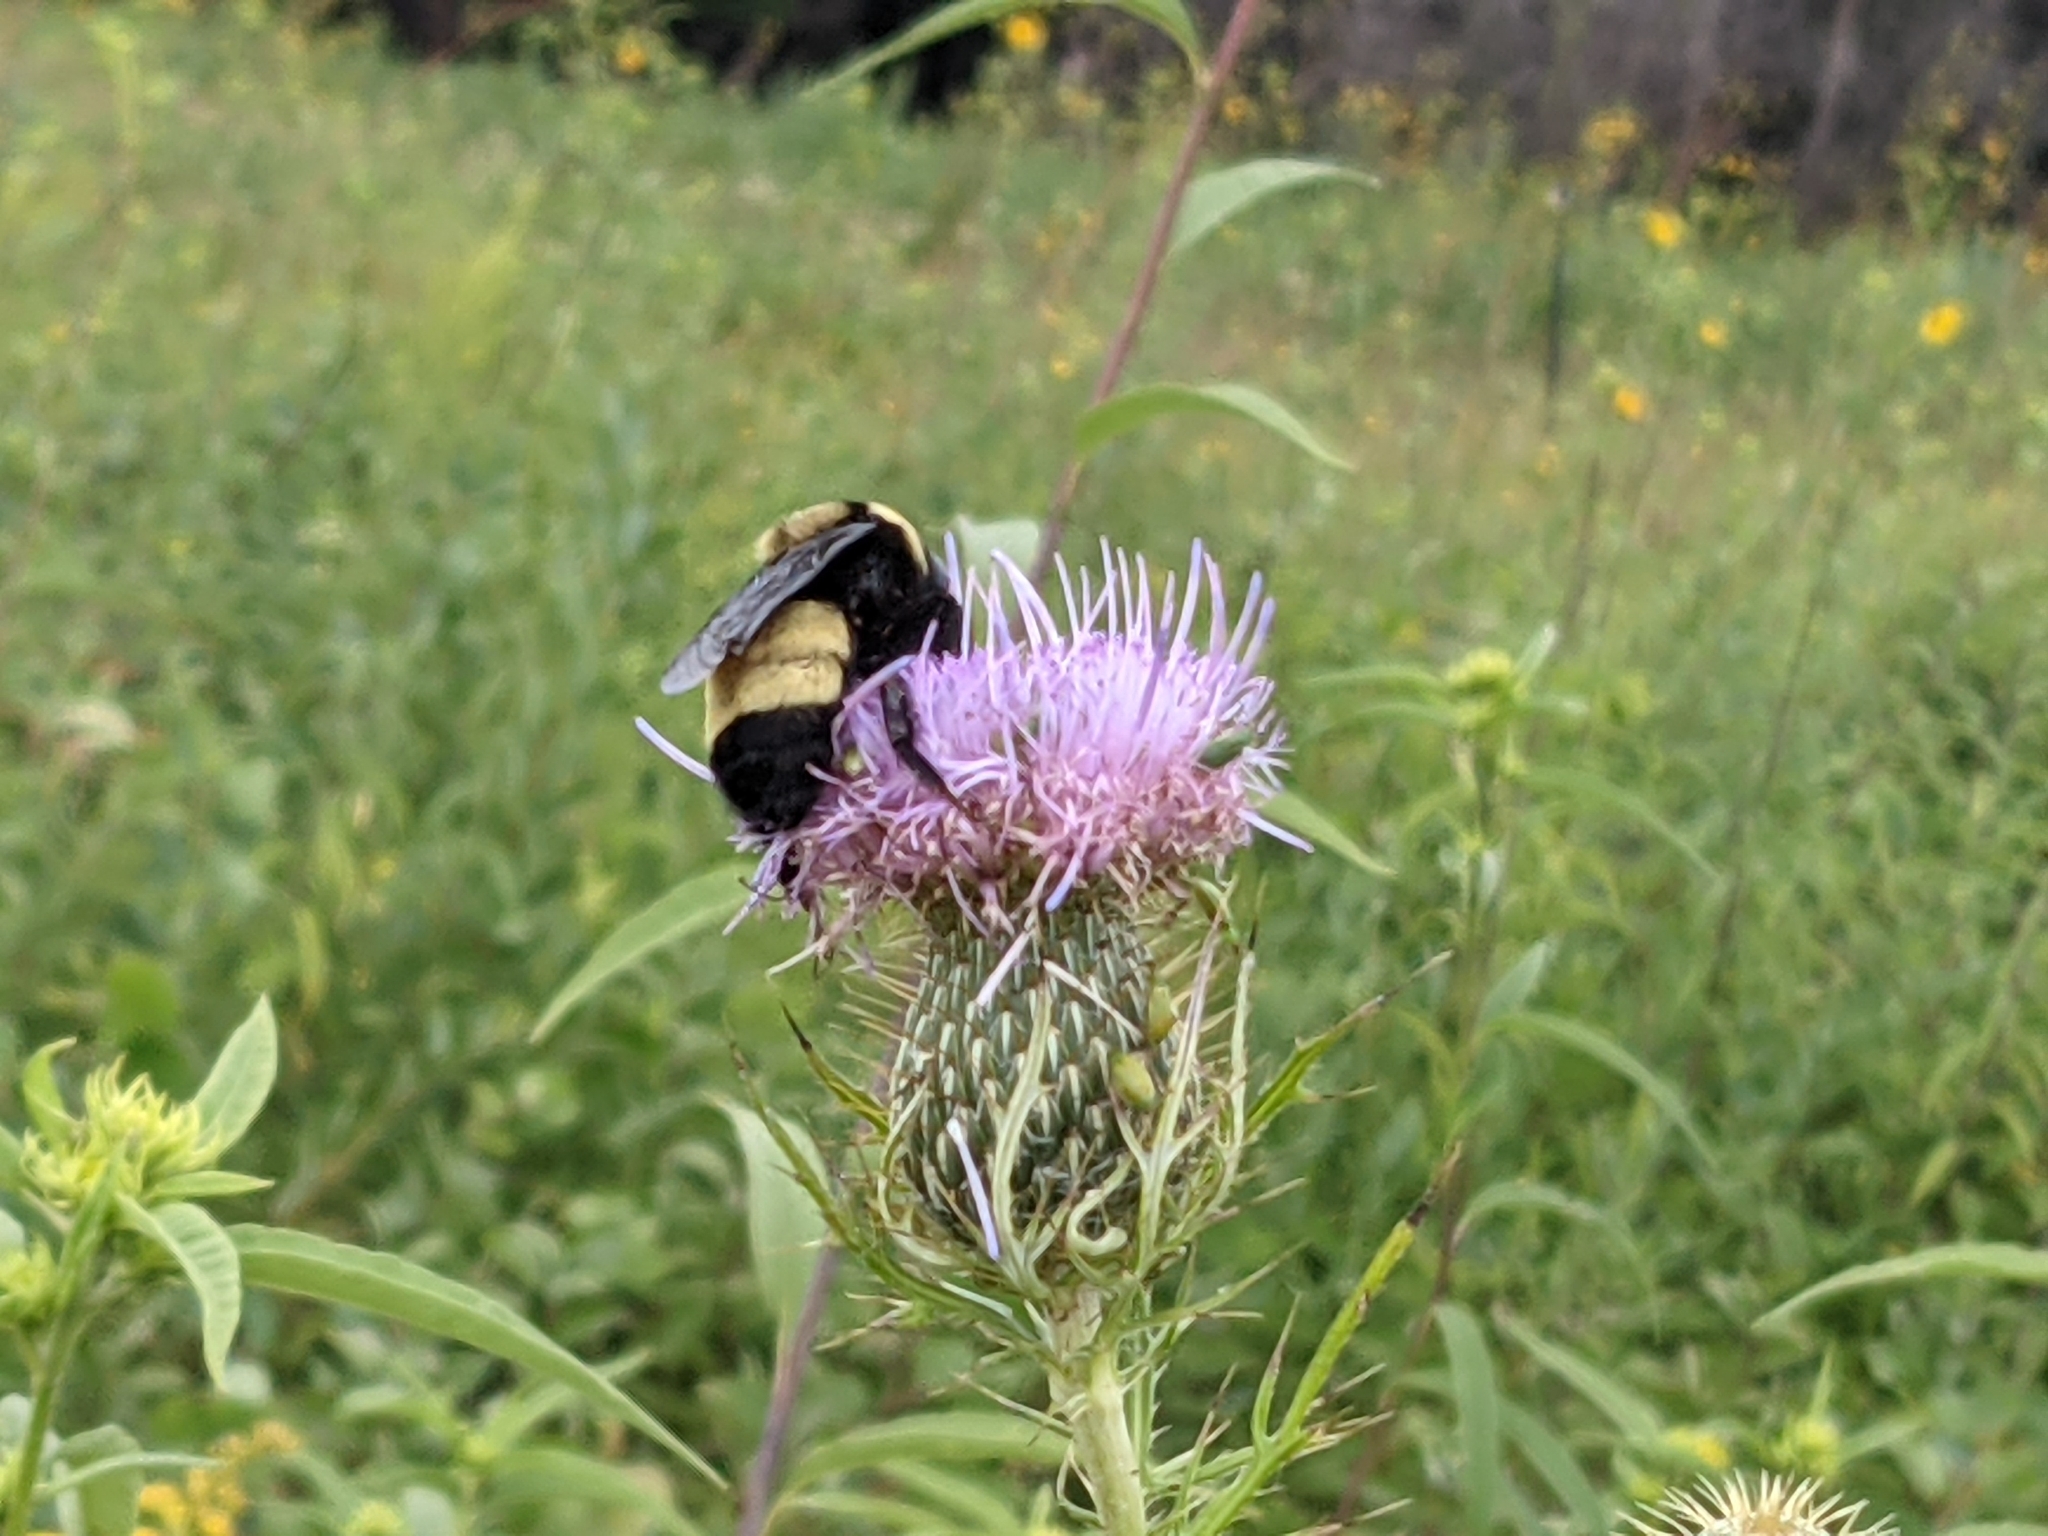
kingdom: Animalia
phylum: Arthropoda
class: Insecta
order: Hymenoptera
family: Apidae
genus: Bombus
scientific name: Bombus auricomus
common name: Black and gold bumble bee
